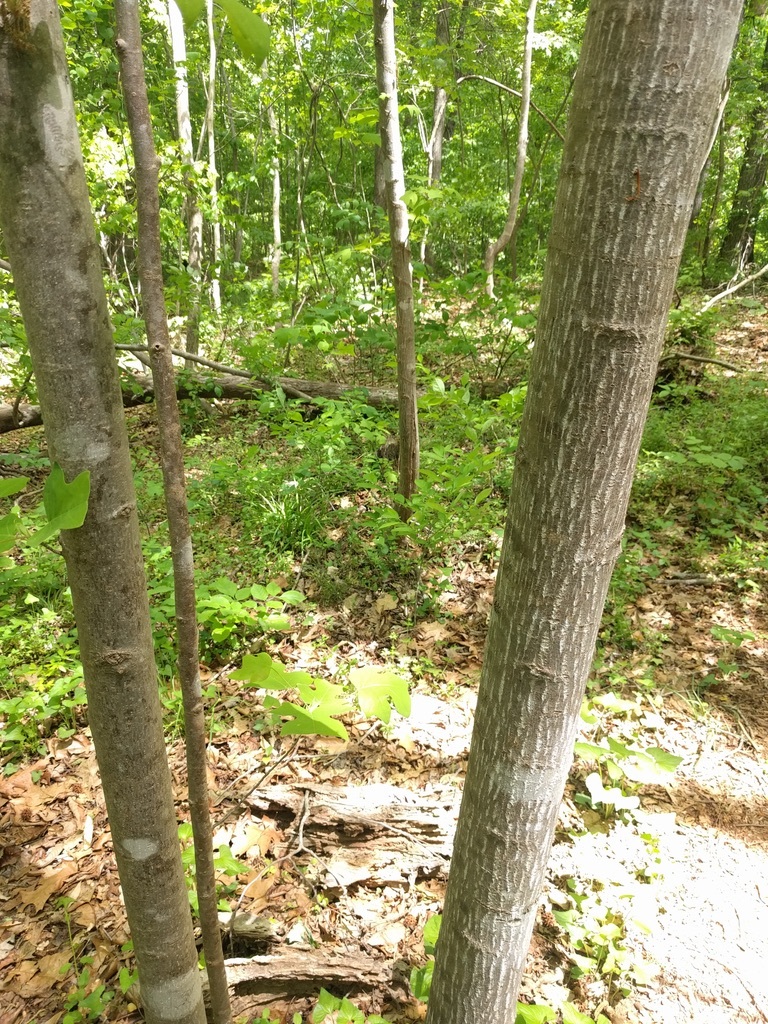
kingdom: Plantae
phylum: Tracheophyta
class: Magnoliopsida
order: Magnoliales
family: Magnoliaceae
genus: Liriodendron
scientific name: Liriodendron tulipifera
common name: Tulip tree
